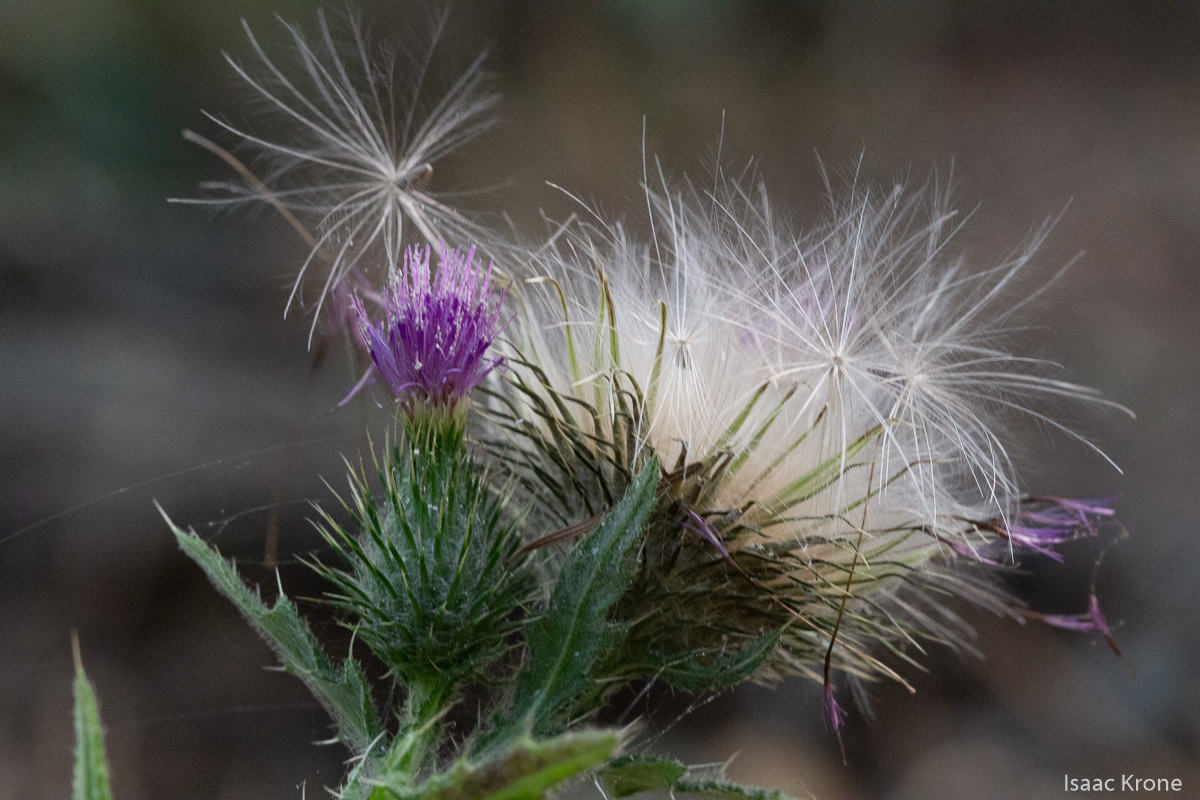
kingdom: Plantae
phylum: Tracheophyta
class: Magnoliopsida
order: Asterales
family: Asteraceae
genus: Cirsium
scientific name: Cirsium vulgare
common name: Bull thistle
